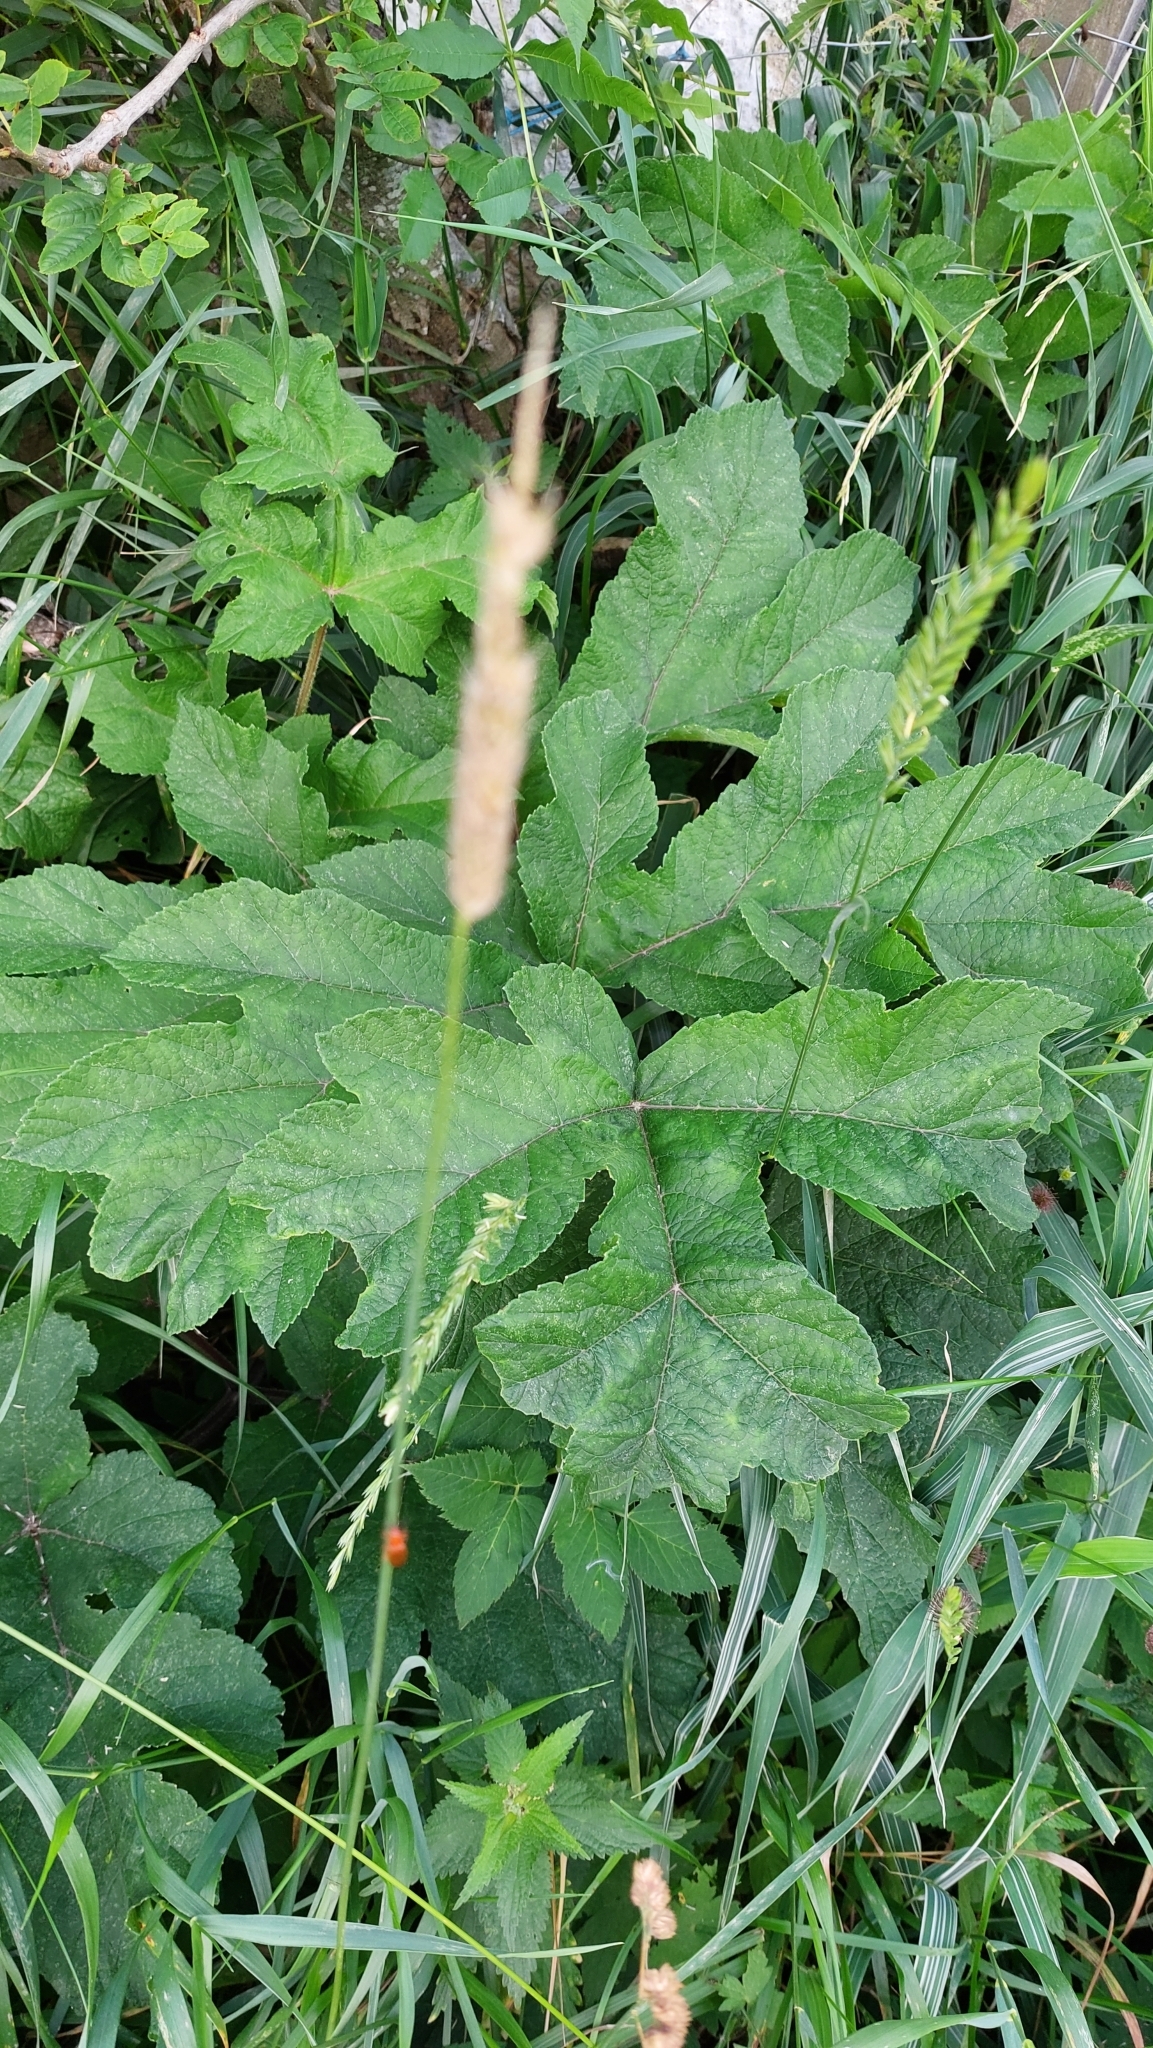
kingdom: Plantae
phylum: Tracheophyta
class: Magnoliopsida
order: Apiales
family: Apiaceae
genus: Heracleum
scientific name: Heracleum sphondylium
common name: Hogweed
